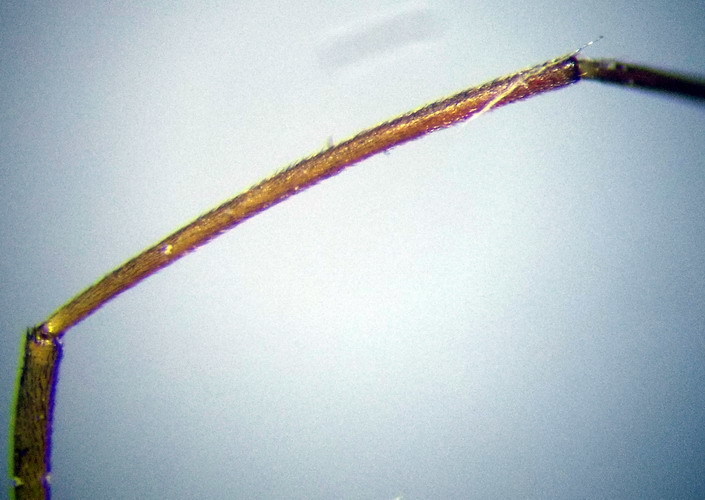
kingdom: Animalia
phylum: Arthropoda
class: Insecta
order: Hemiptera
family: Miridae
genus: Adelphocoris
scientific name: Adelphocoris lineolatus
